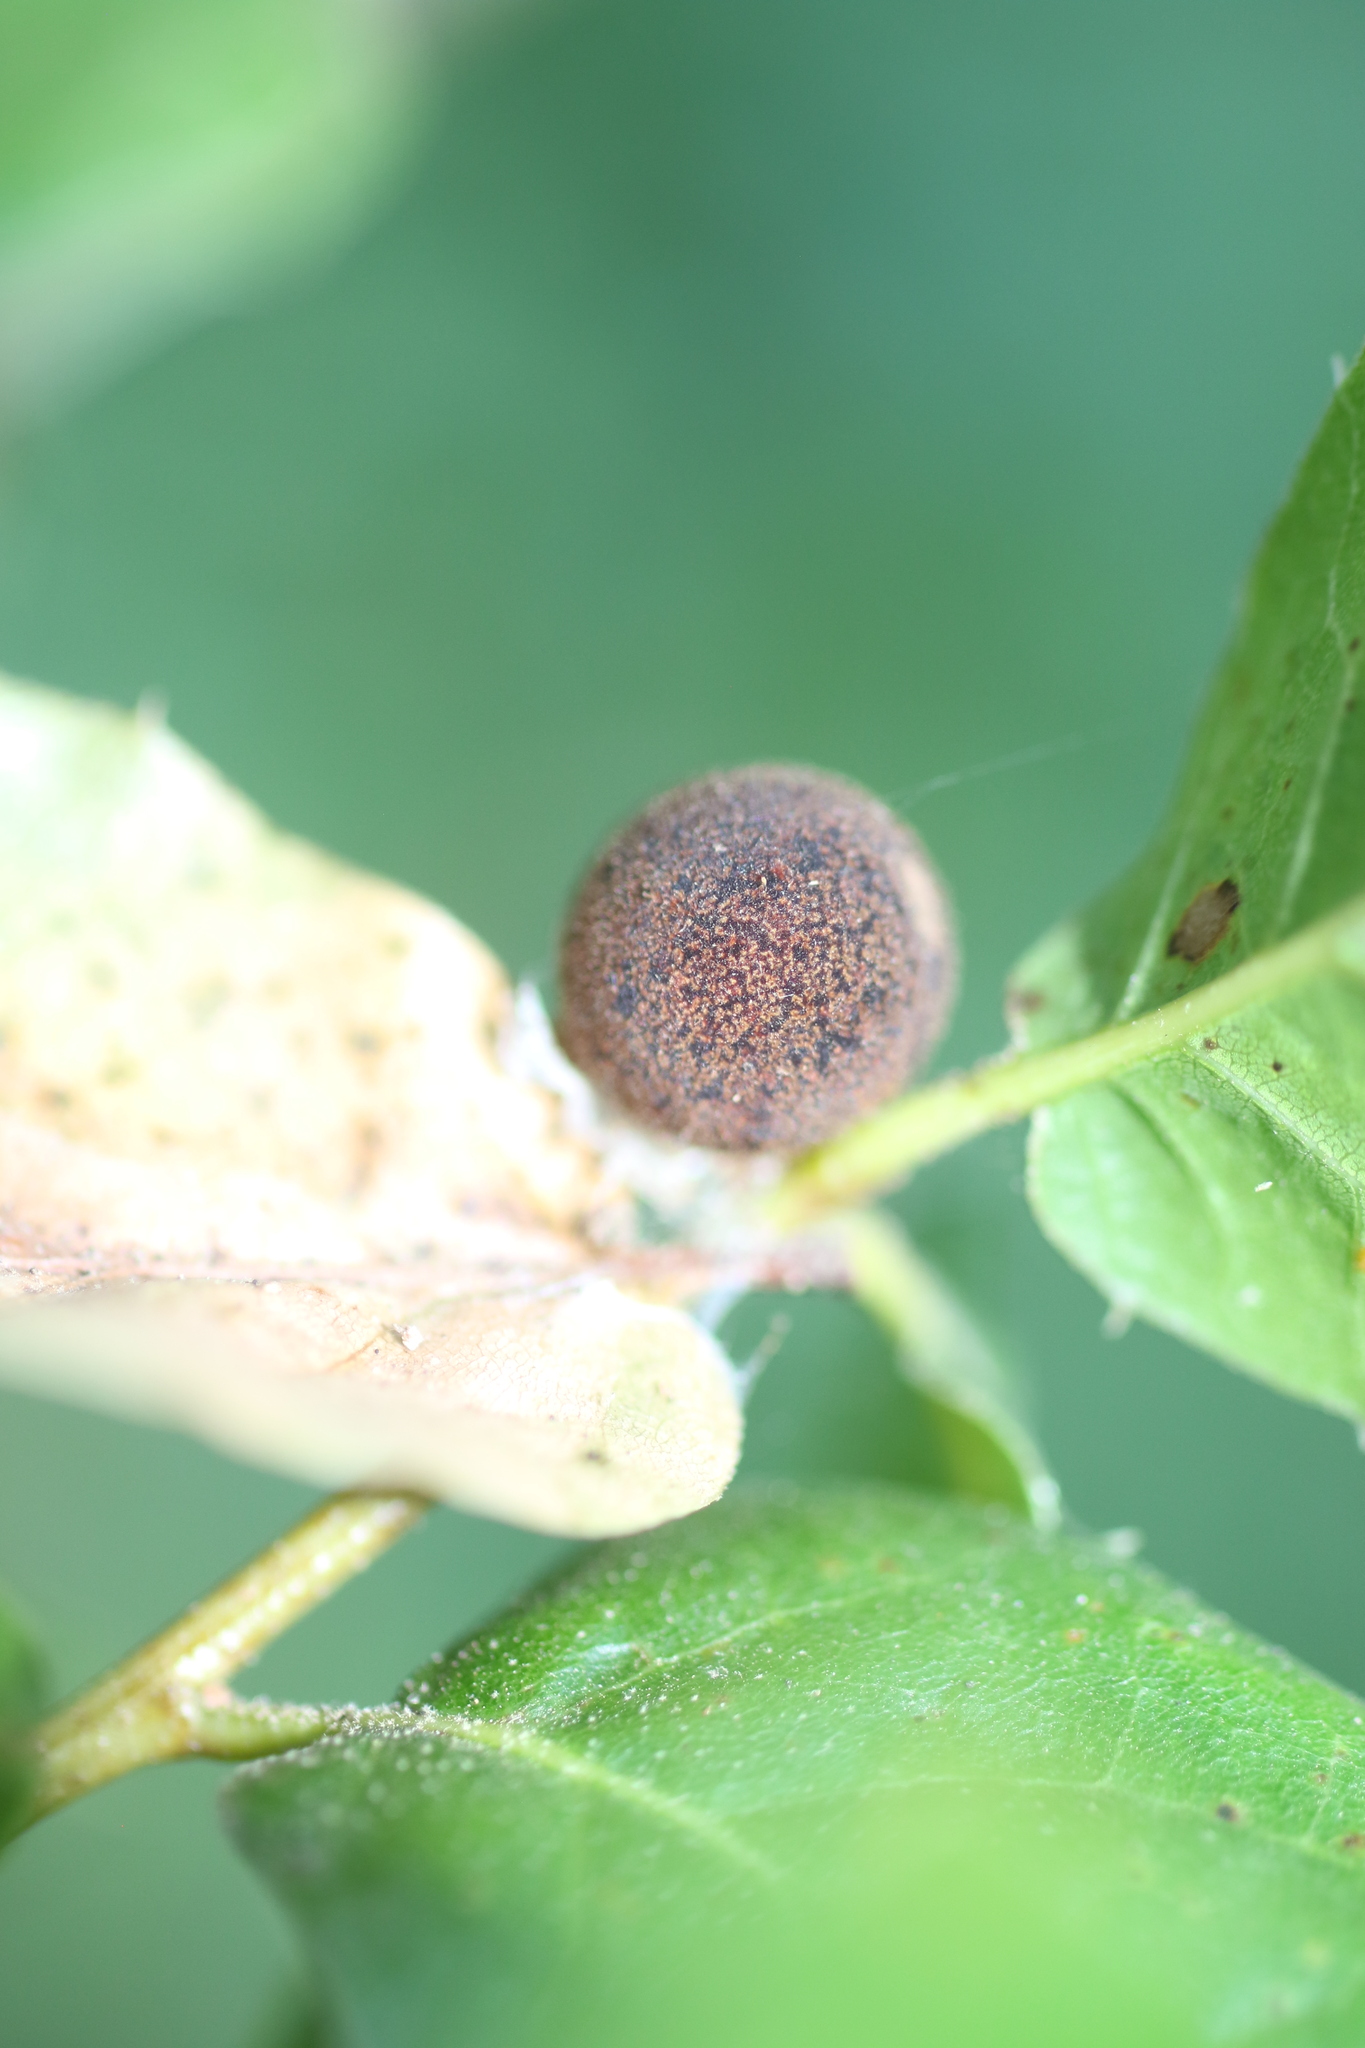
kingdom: Animalia
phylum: Arthropoda
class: Insecta
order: Hymenoptera
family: Cynipidae
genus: Callirhytis
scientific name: Callirhytis
